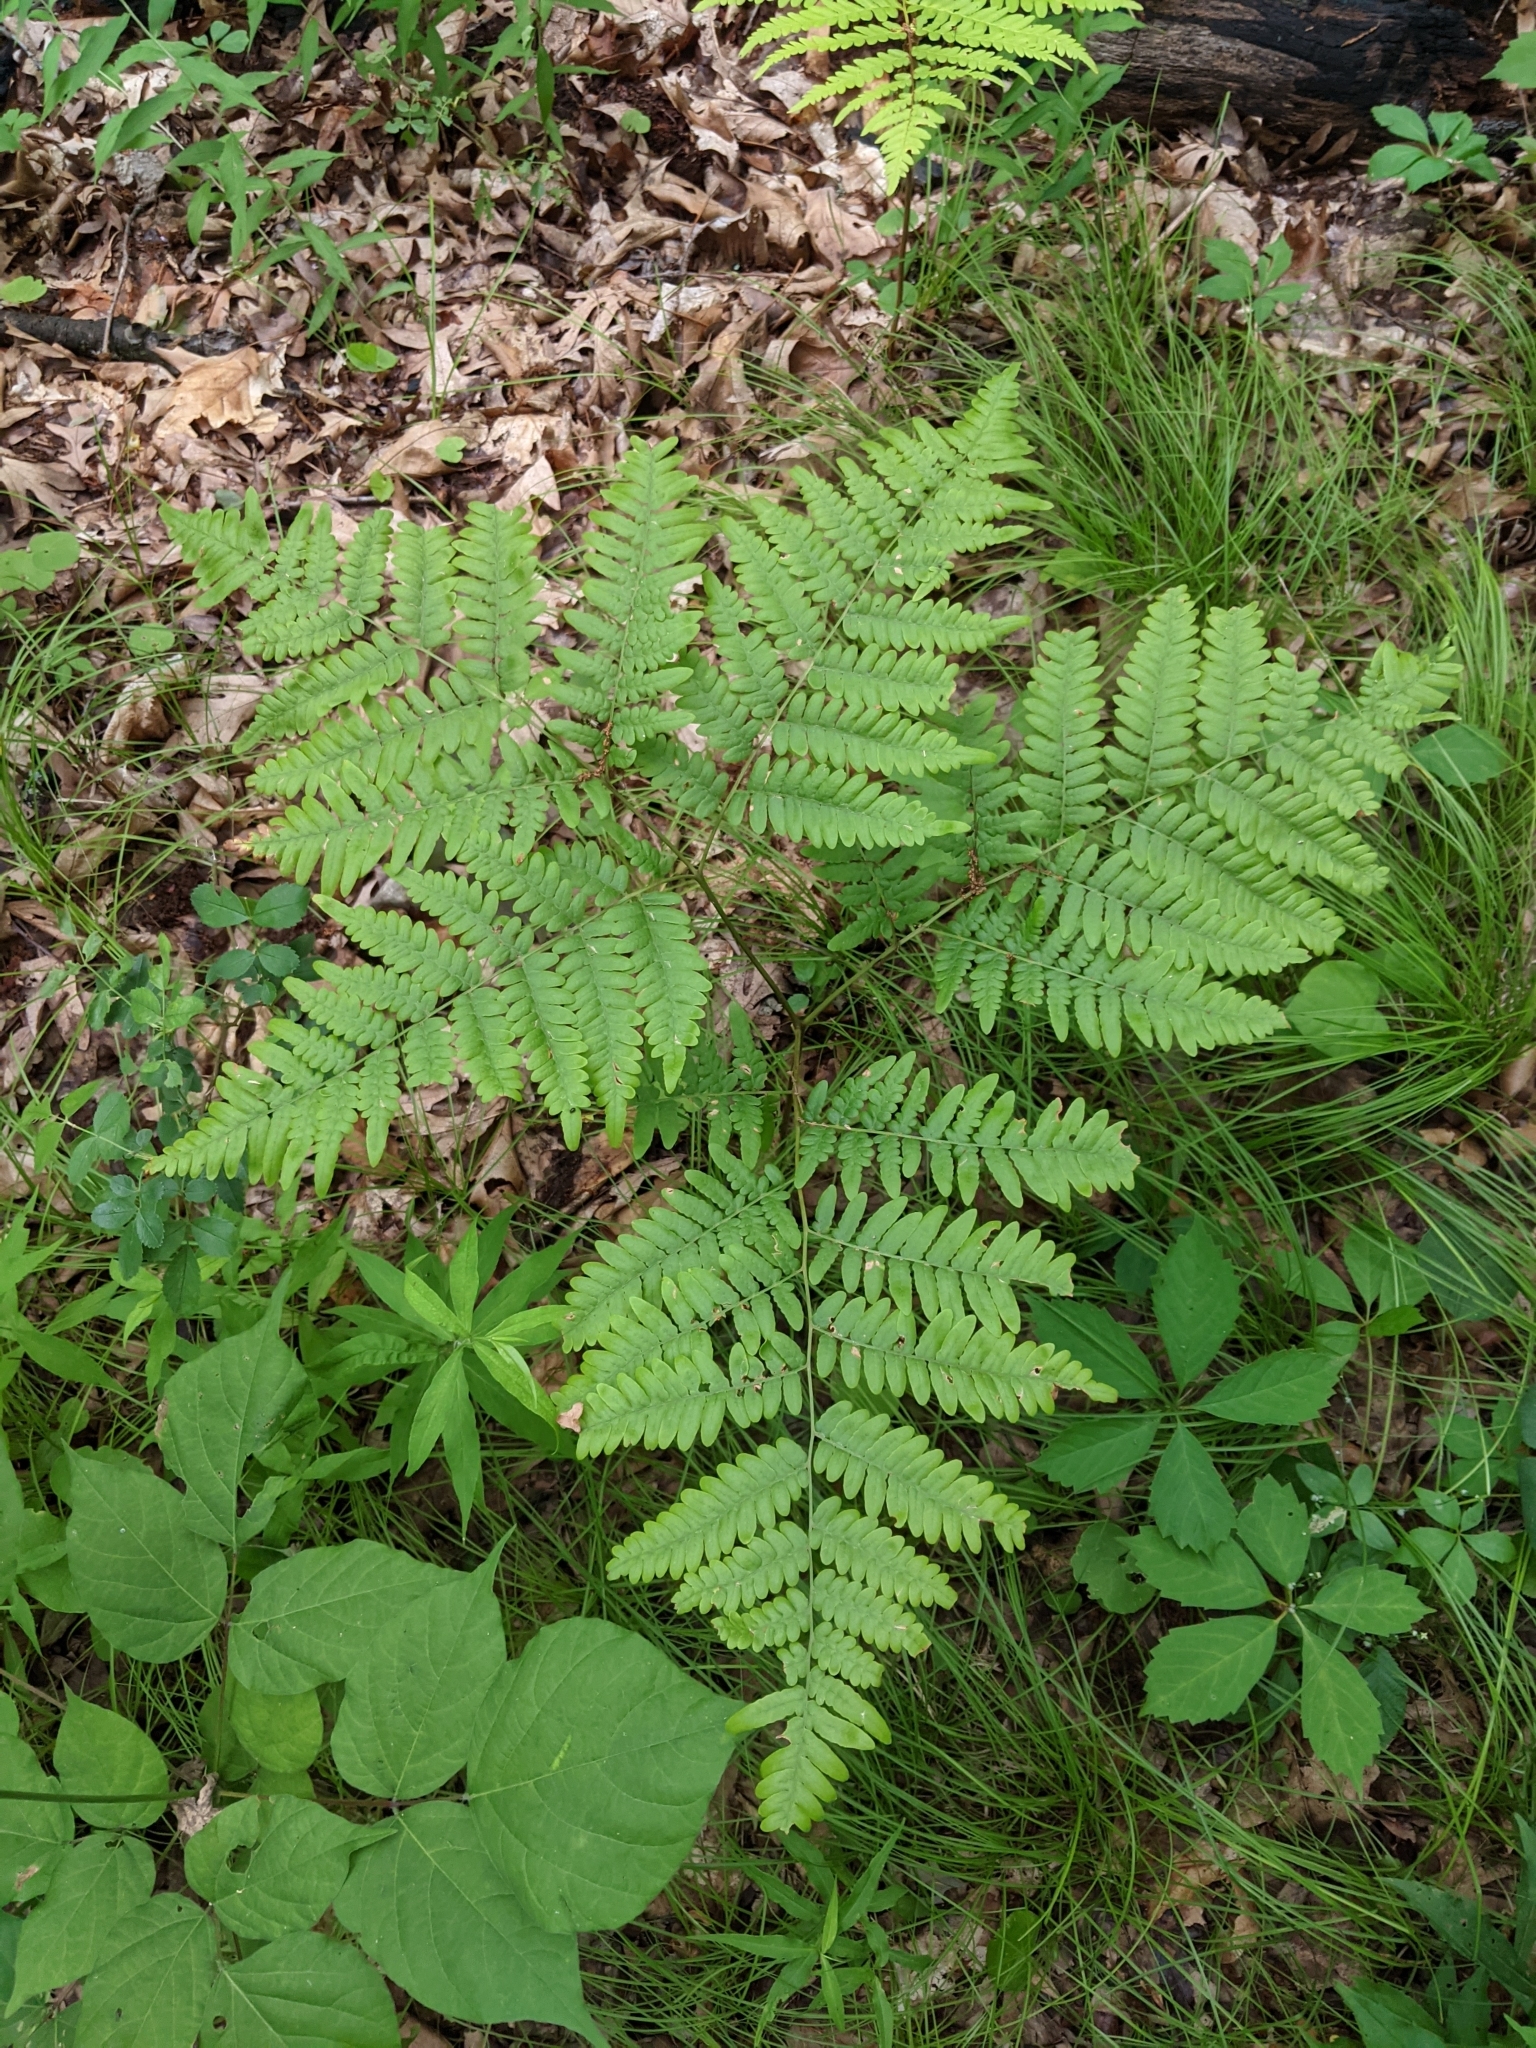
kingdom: Plantae
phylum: Tracheophyta
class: Polypodiopsida
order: Polypodiales
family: Dennstaedtiaceae
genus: Pteridium
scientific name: Pteridium aquilinum
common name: Bracken
